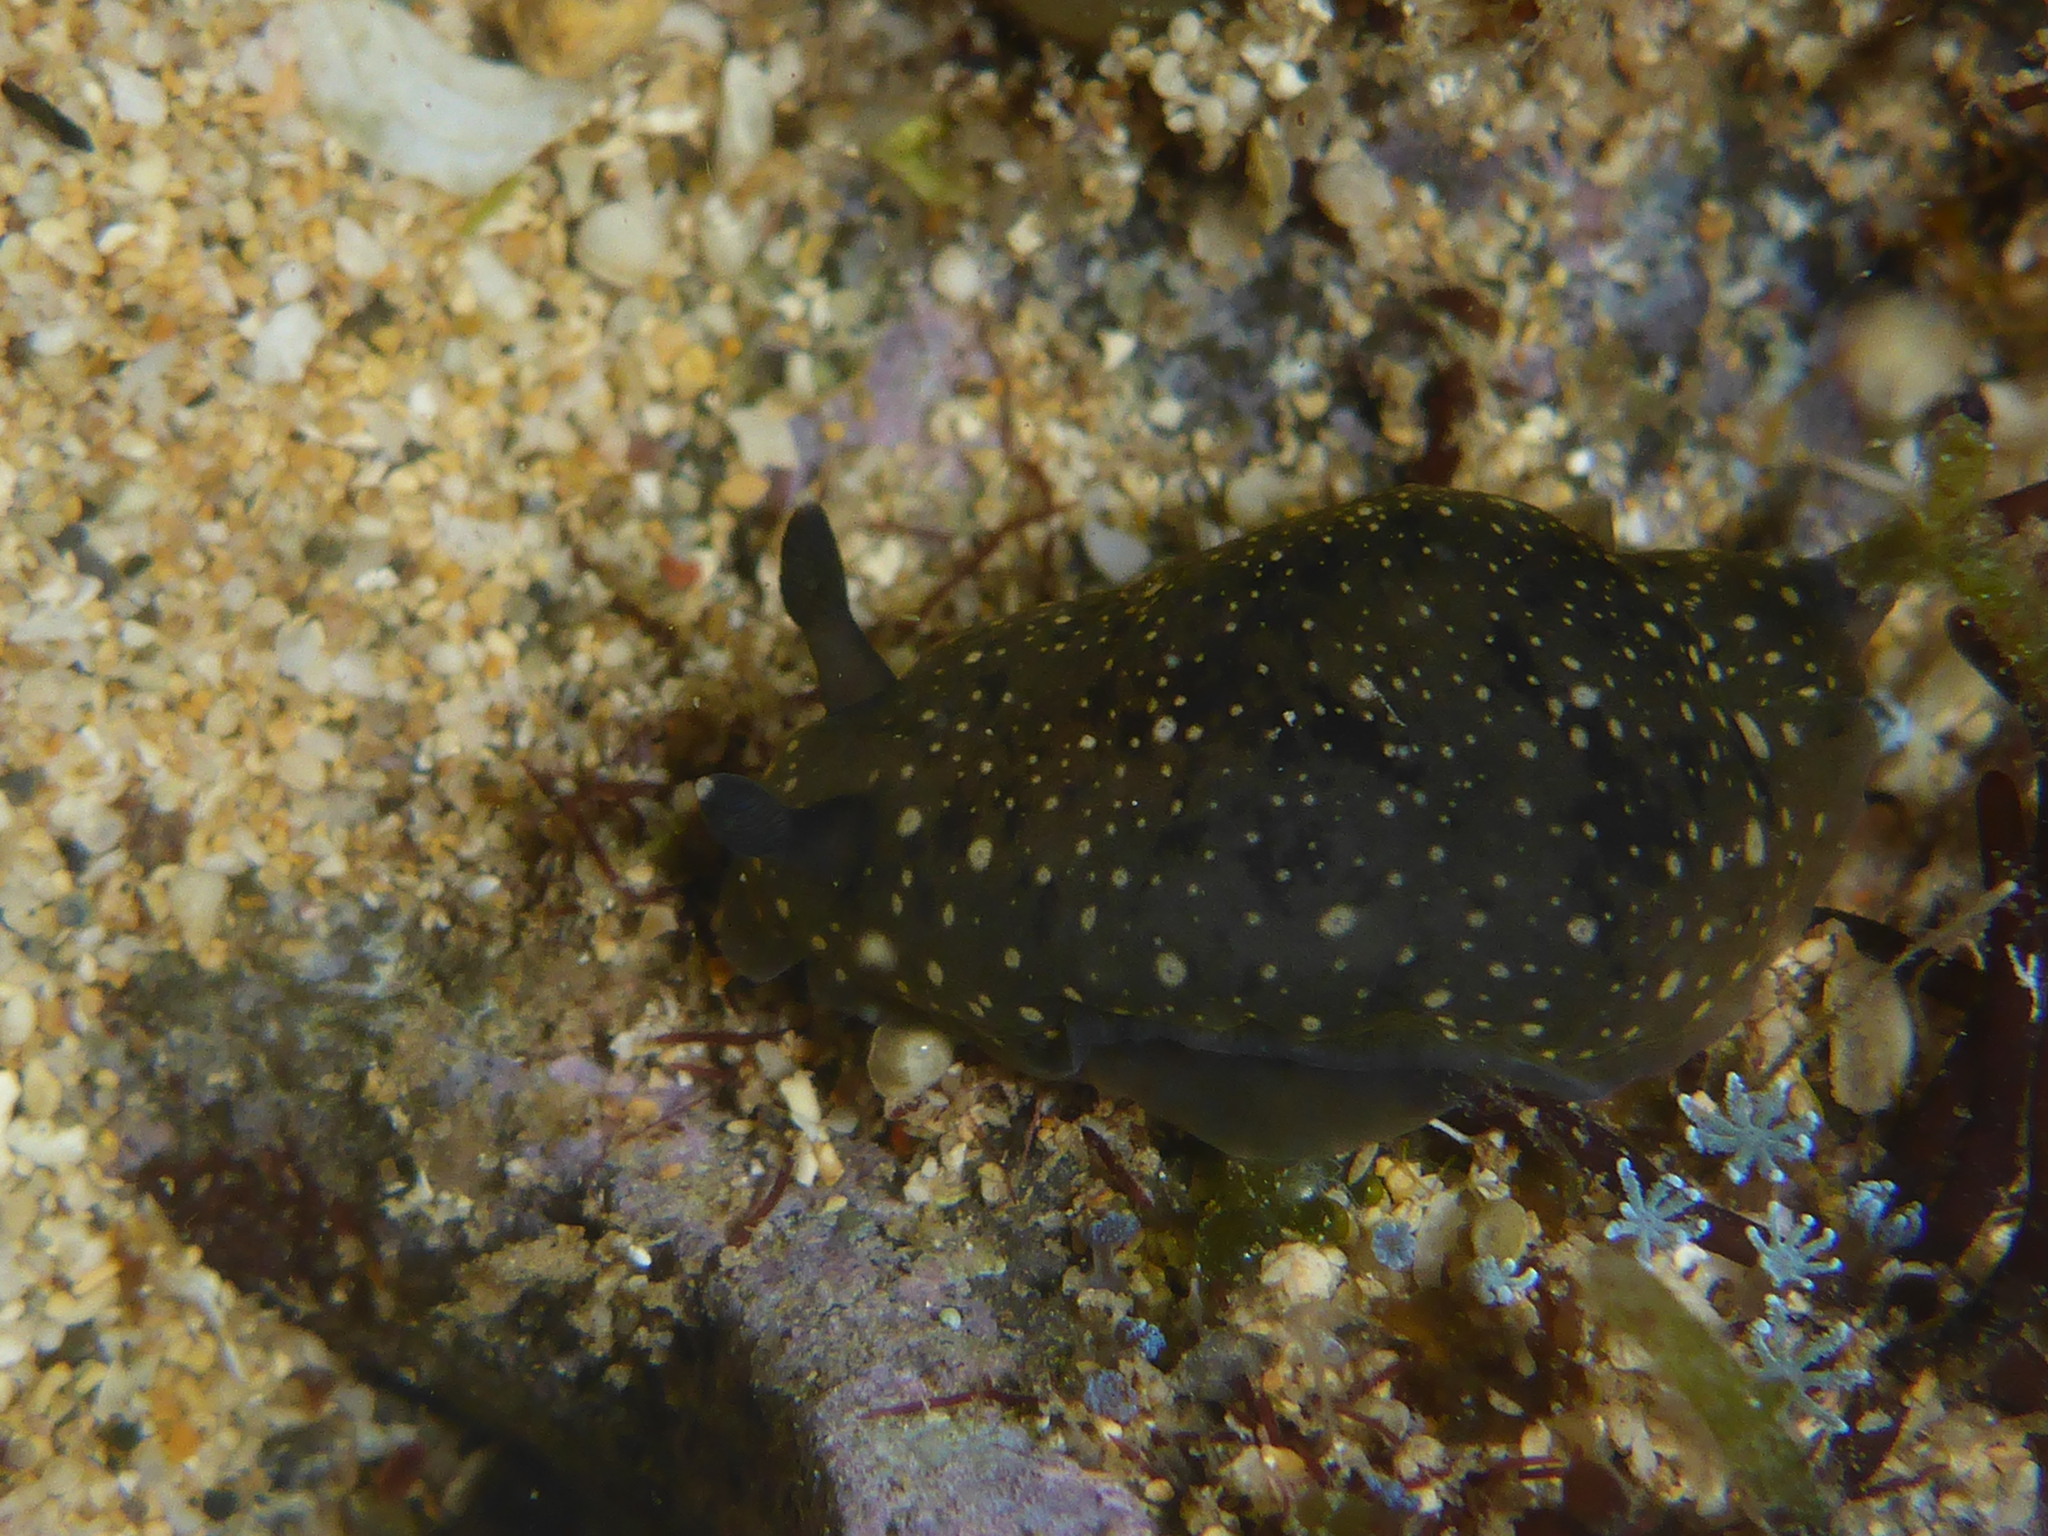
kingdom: Animalia
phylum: Mollusca
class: Gastropoda
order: Nudibranchia
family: Dendrodorididae
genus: Dendrodoris
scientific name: Dendrodoris nigra
